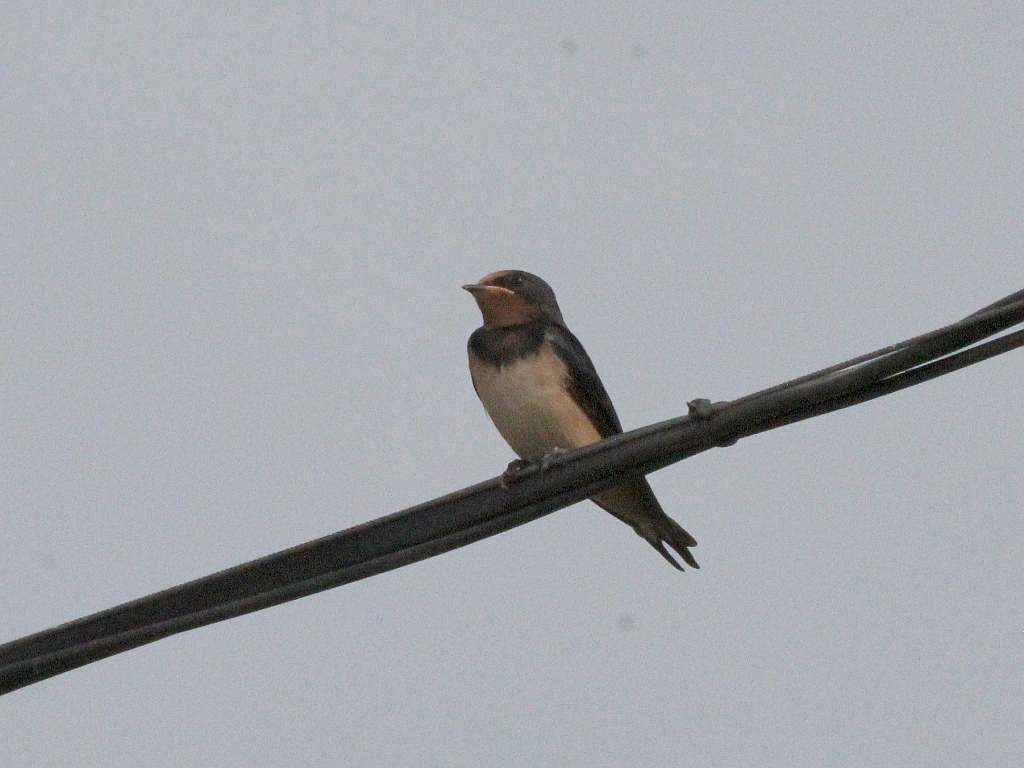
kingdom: Animalia
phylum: Chordata
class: Aves
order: Passeriformes
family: Hirundinidae
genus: Hirundo
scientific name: Hirundo rustica
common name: Barn swallow
